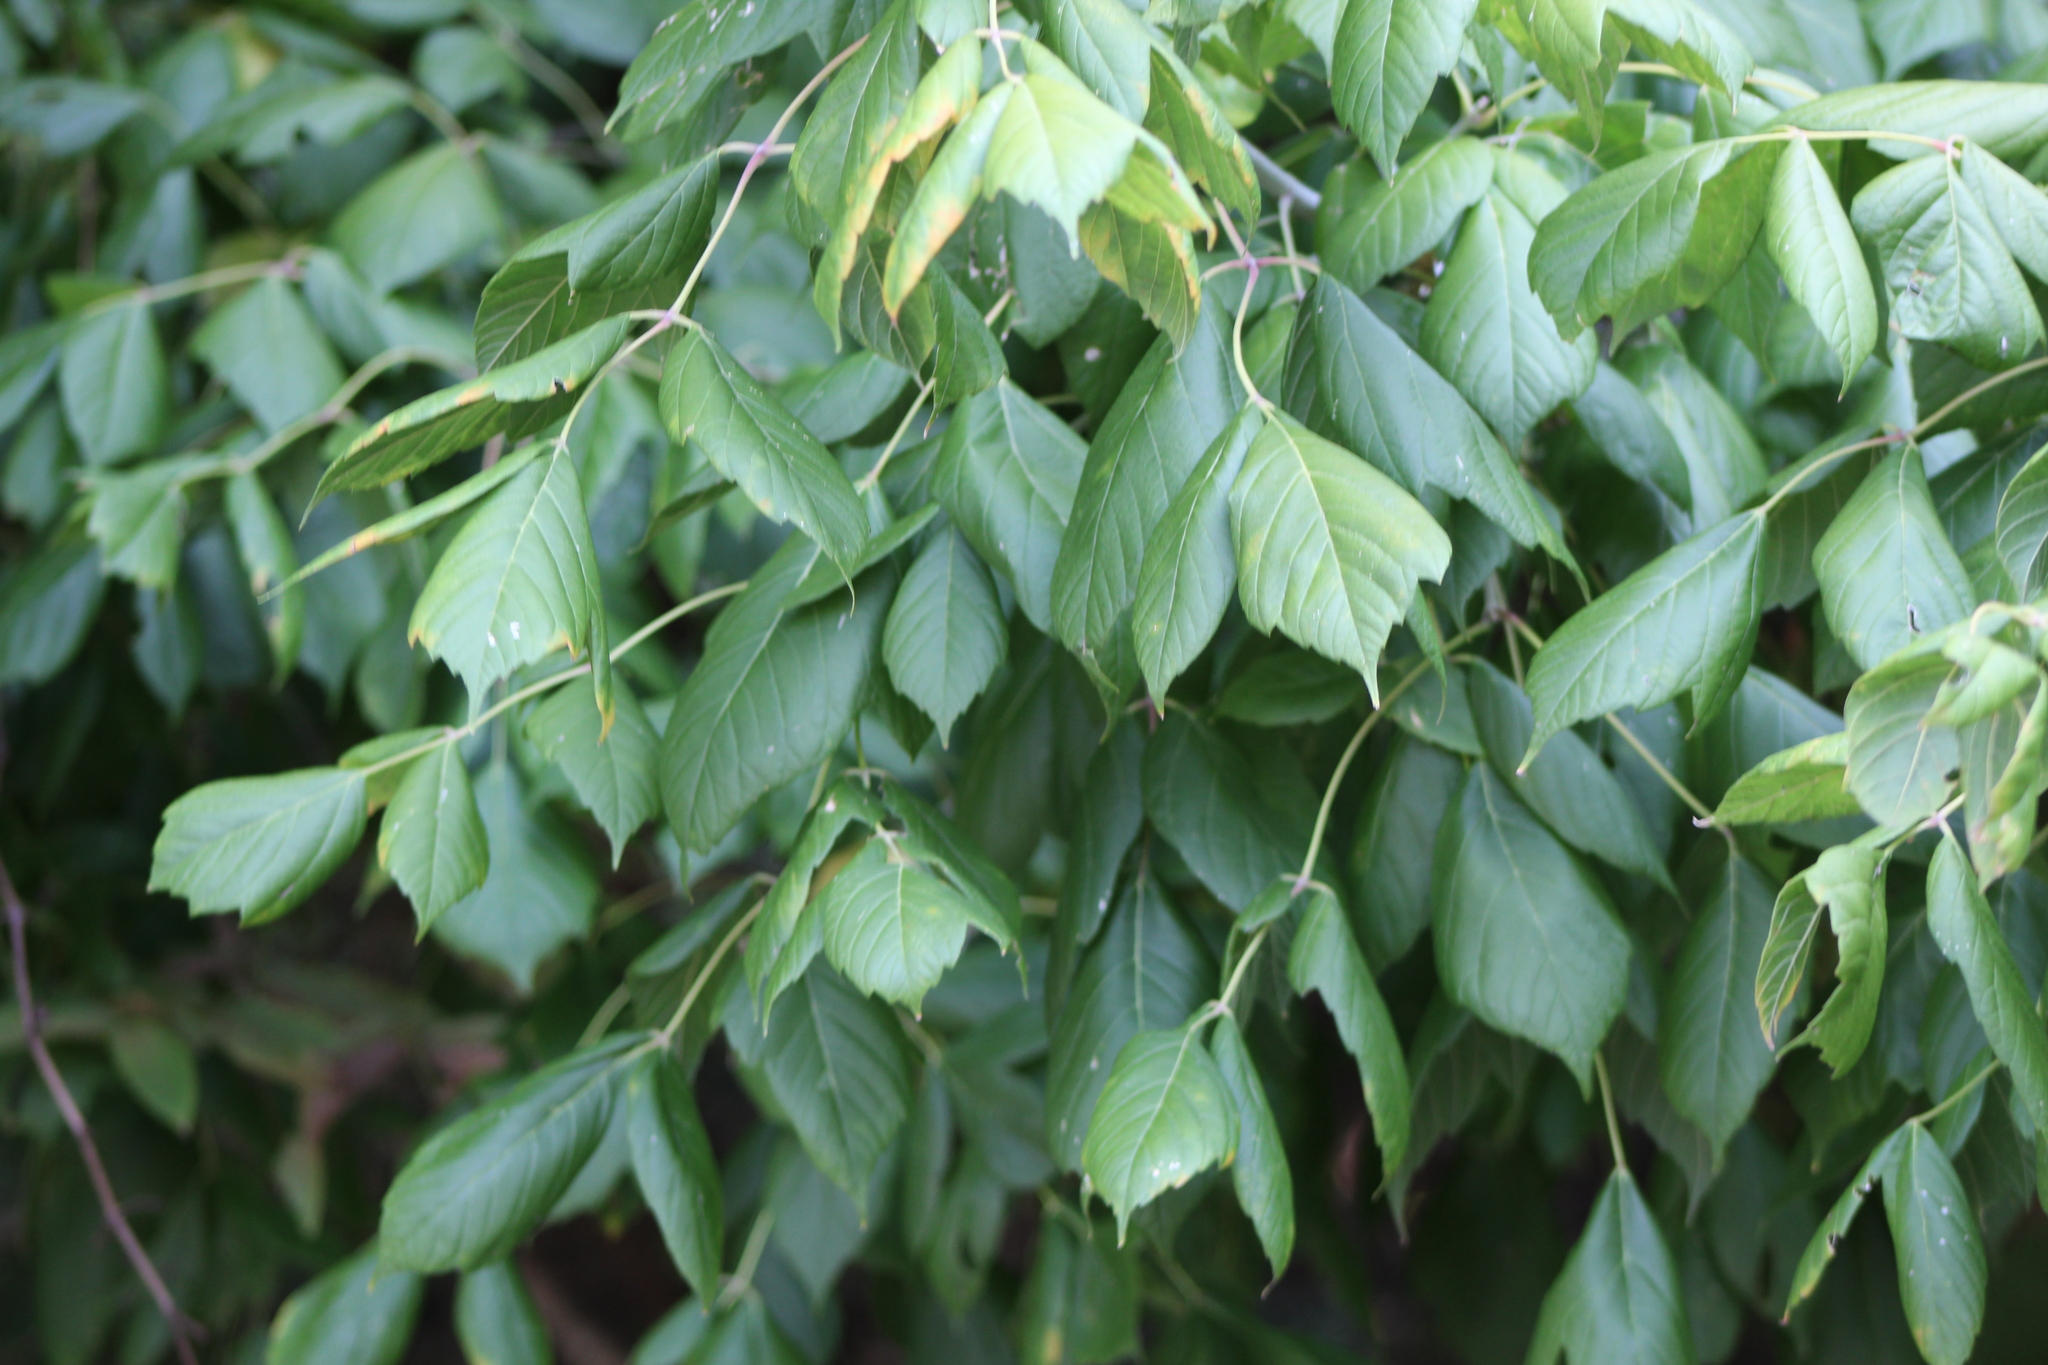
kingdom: Plantae
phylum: Tracheophyta
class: Magnoliopsida
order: Sapindales
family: Sapindaceae
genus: Acer
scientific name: Acer negundo
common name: Ashleaf maple
